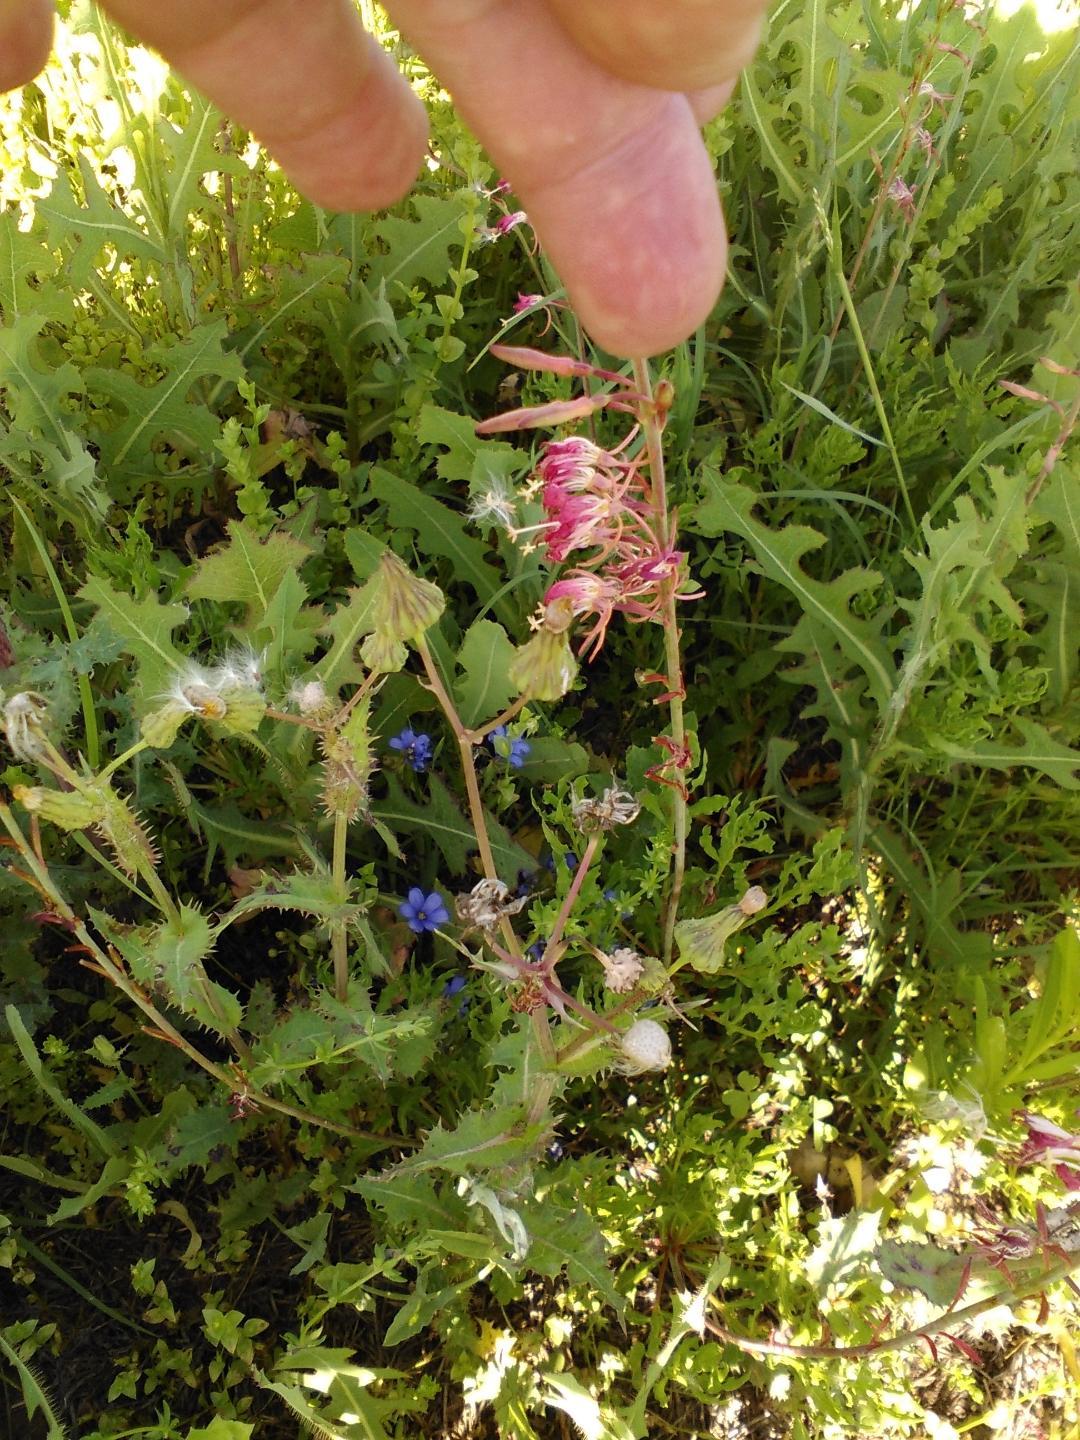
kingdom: Plantae
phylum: Tracheophyta
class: Magnoliopsida
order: Myrtales
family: Onagraceae
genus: Oenothera
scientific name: Oenothera suffulta
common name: Kisses
